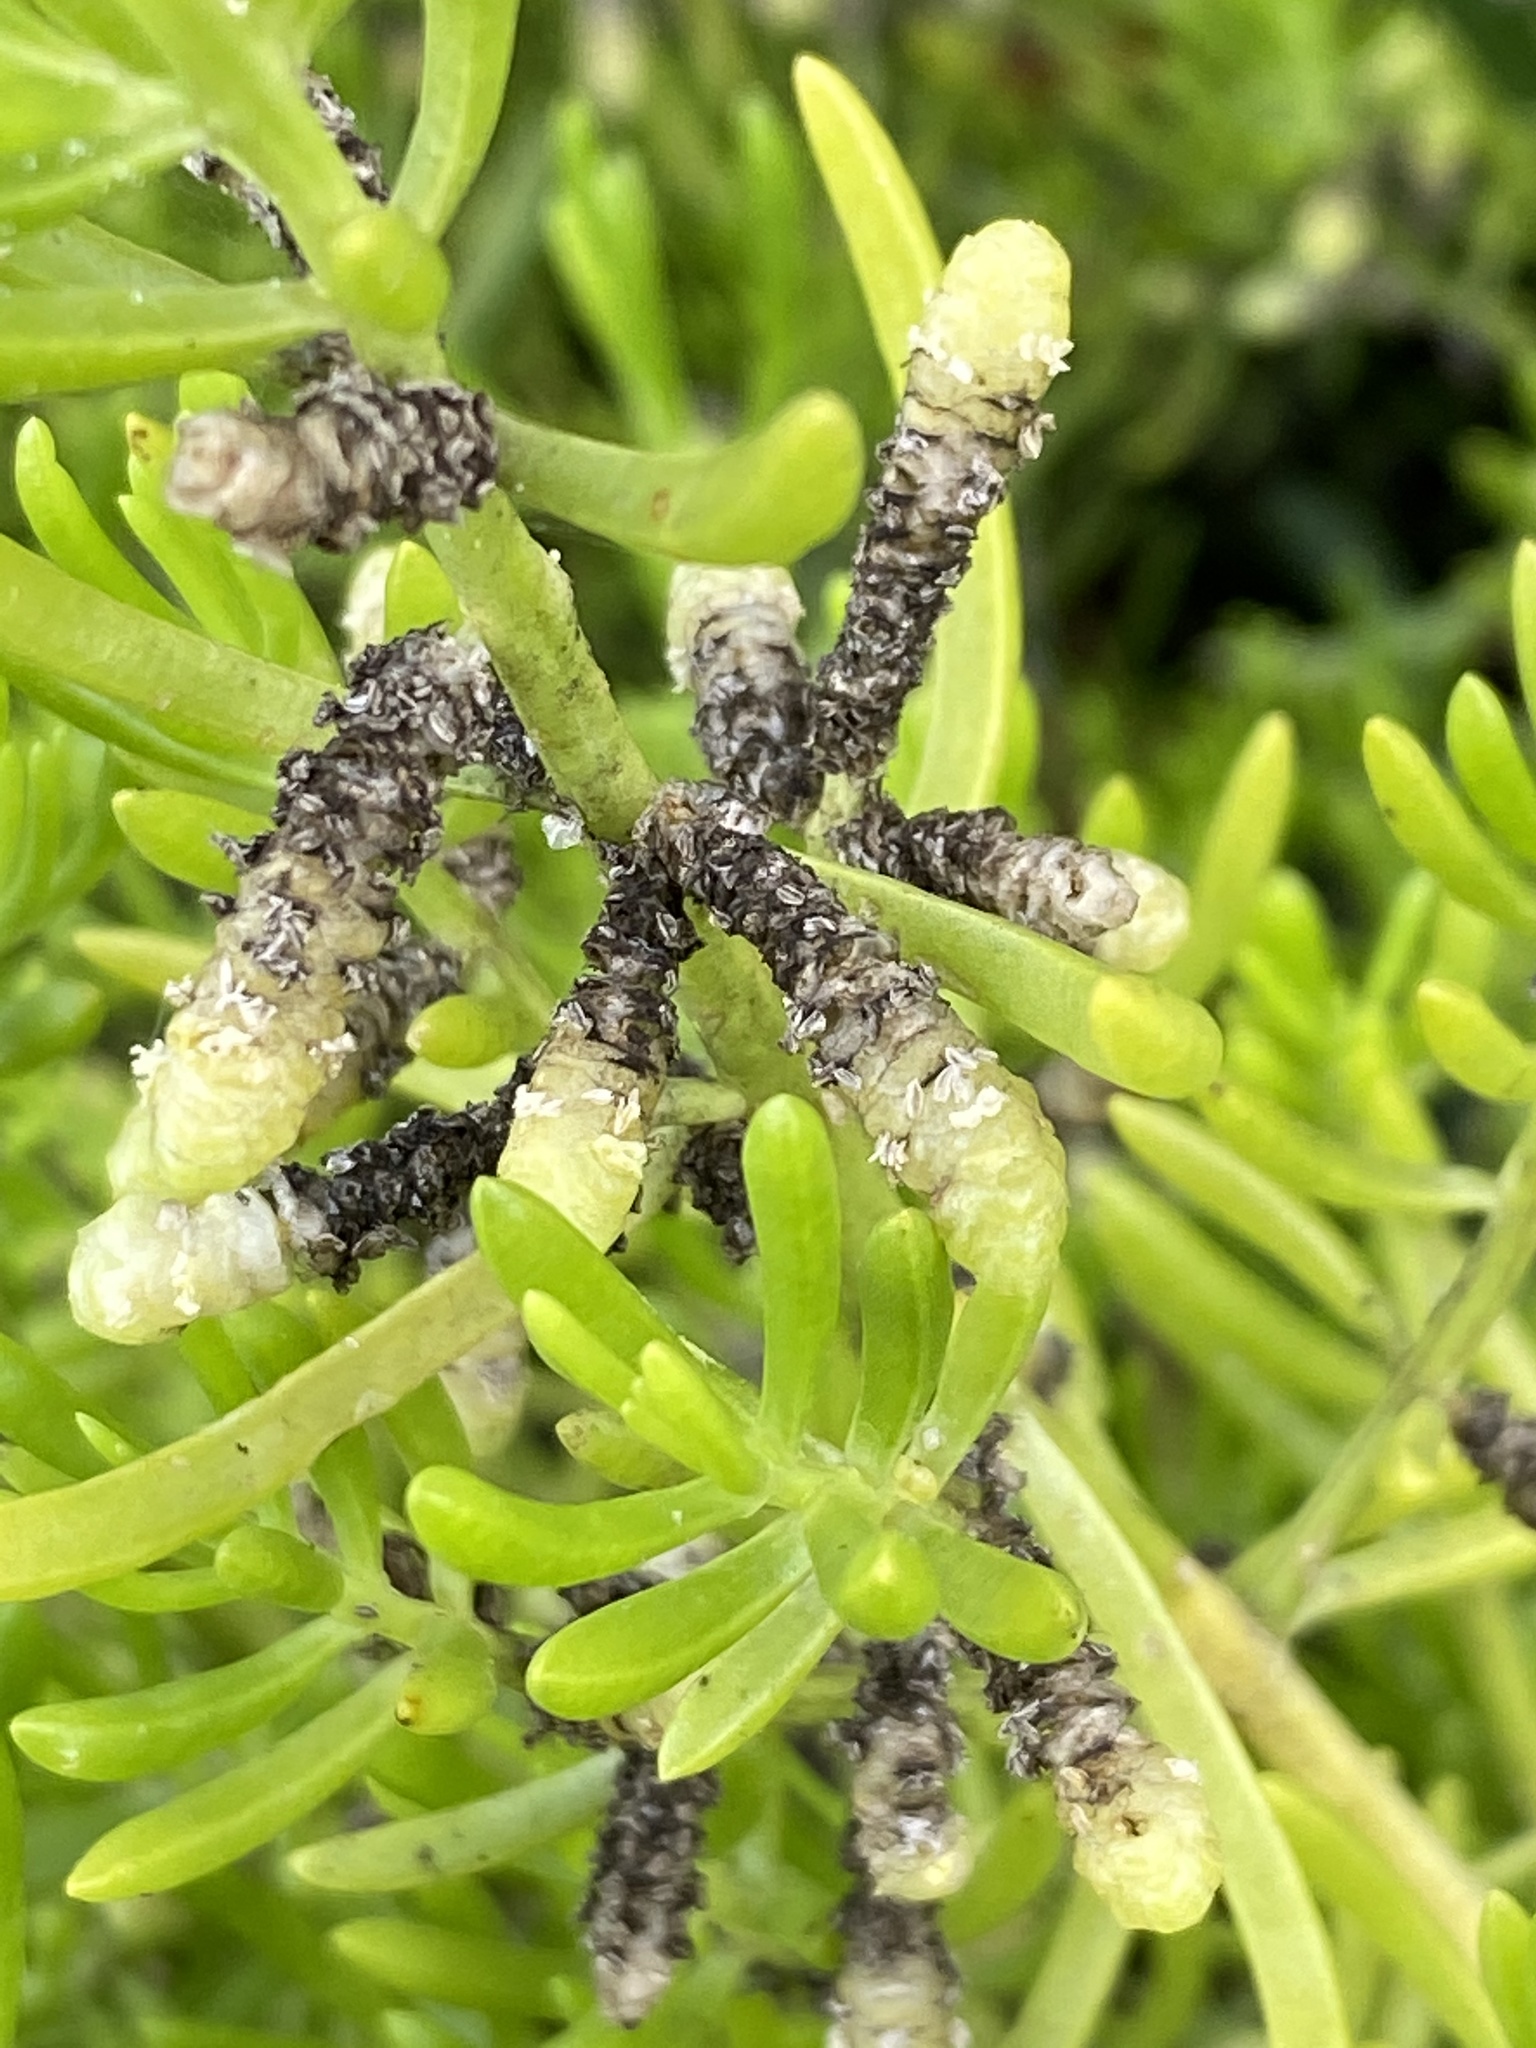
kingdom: Plantae
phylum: Tracheophyta
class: Magnoliopsida
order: Brassicales
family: Bataceae
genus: Batis
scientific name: Batis maritima
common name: Turtleweed
